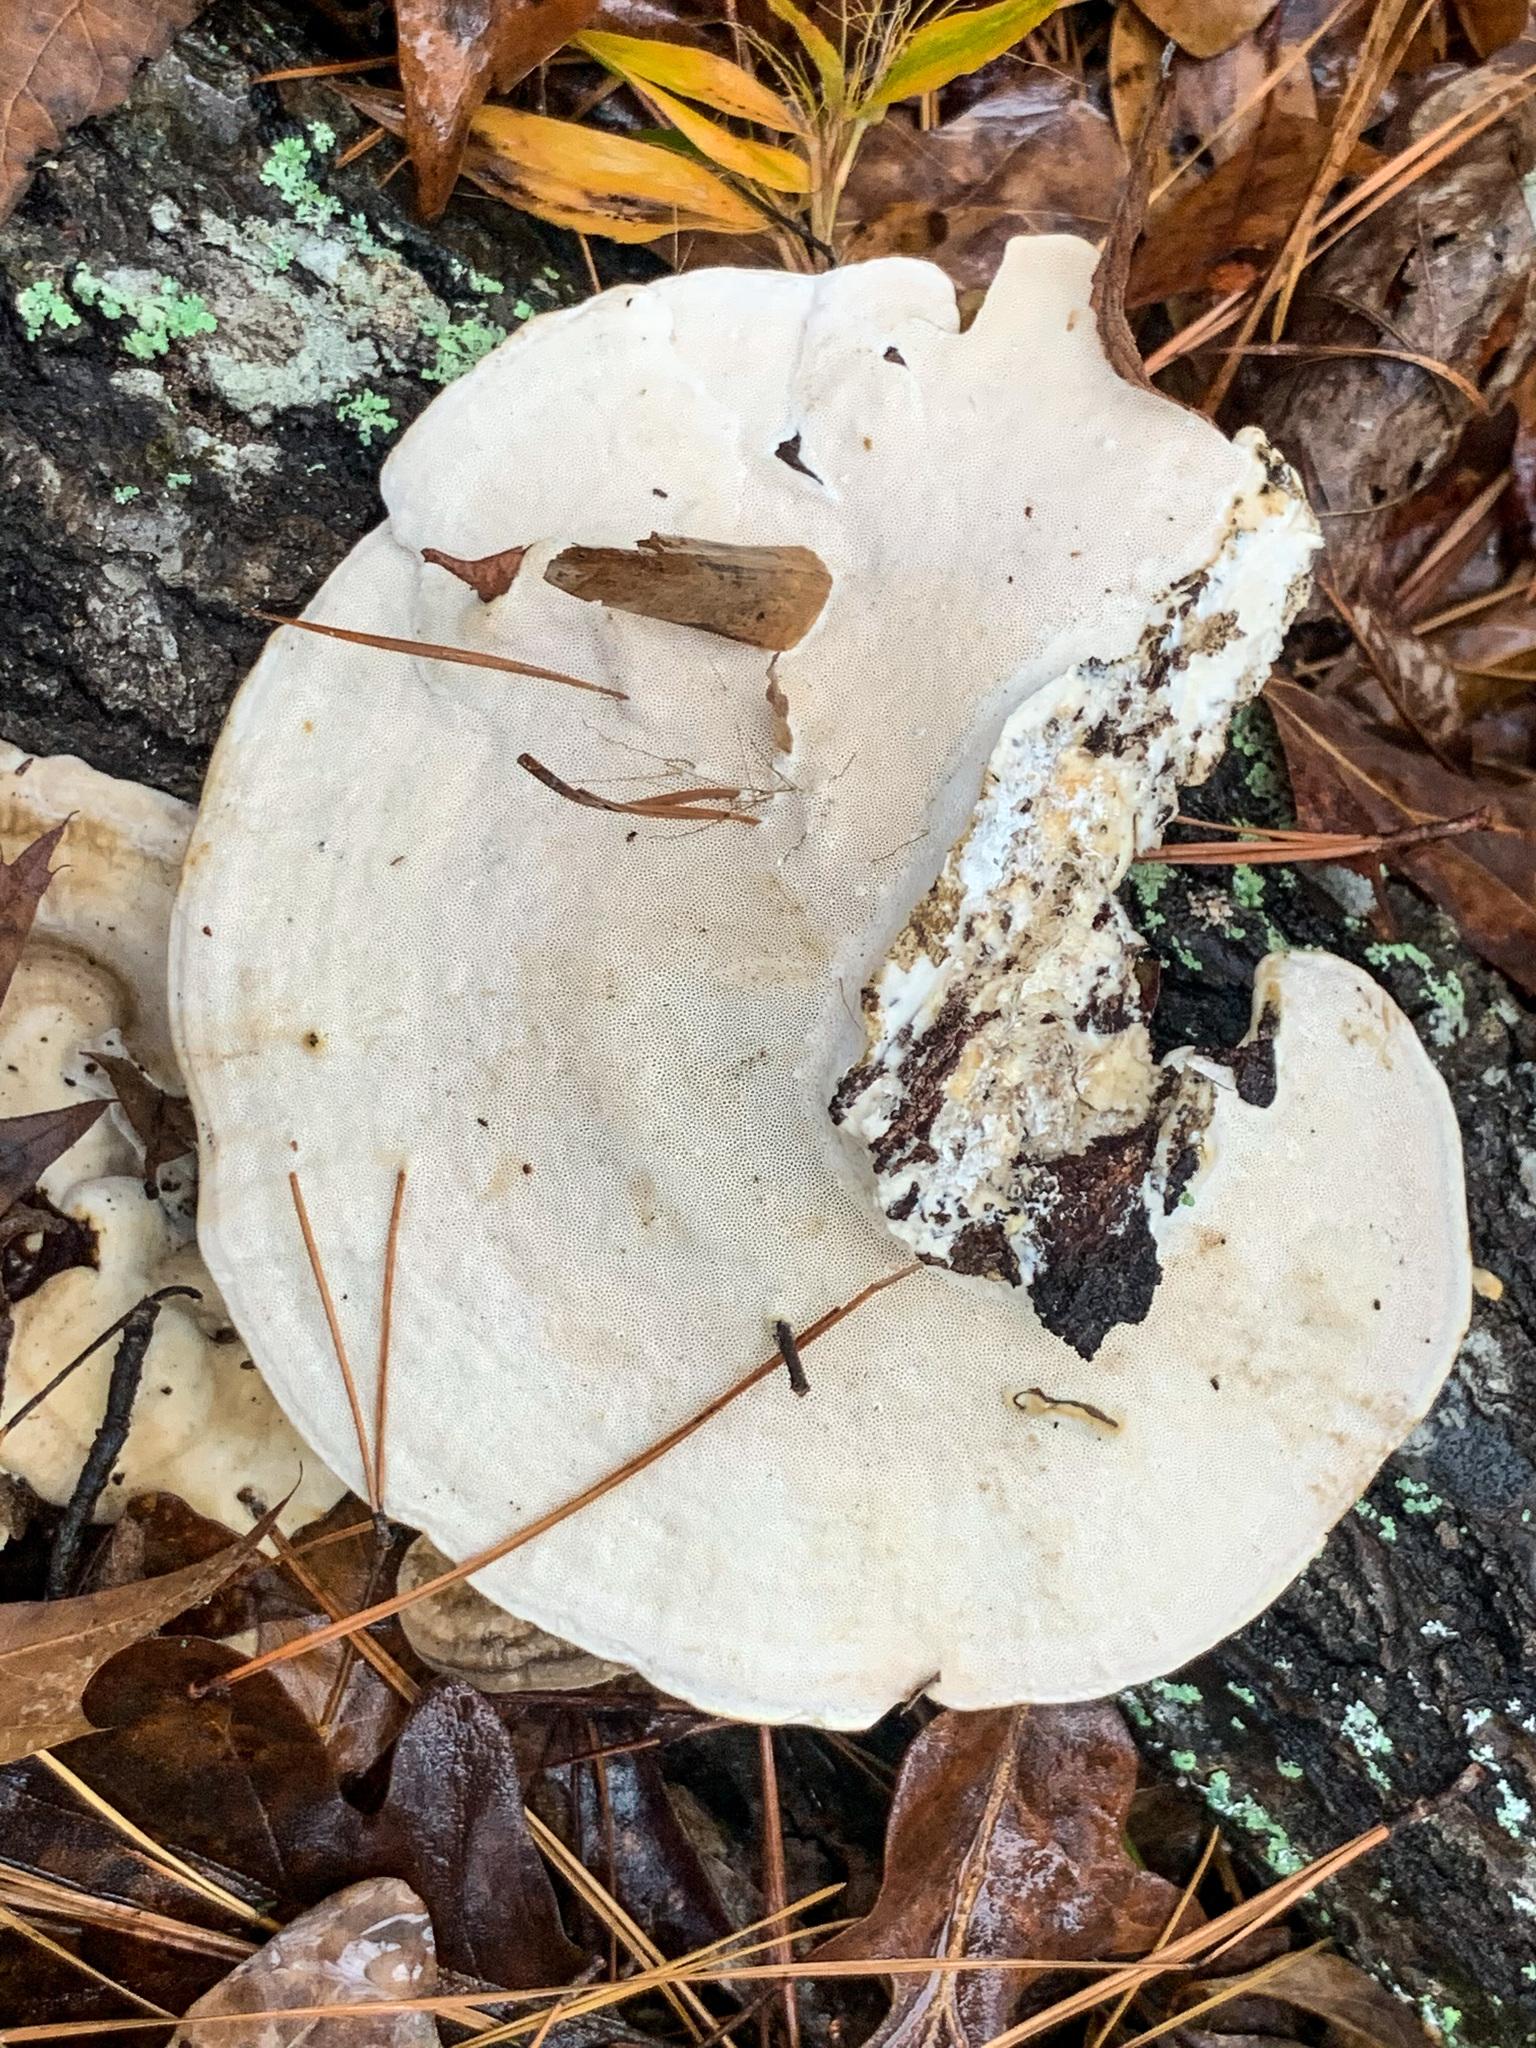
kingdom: Fungi
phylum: Basidiomycota
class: Agaricomycetes
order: Polyporales
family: Polyporaceae
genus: Trametes
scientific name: Trametes lactinea
